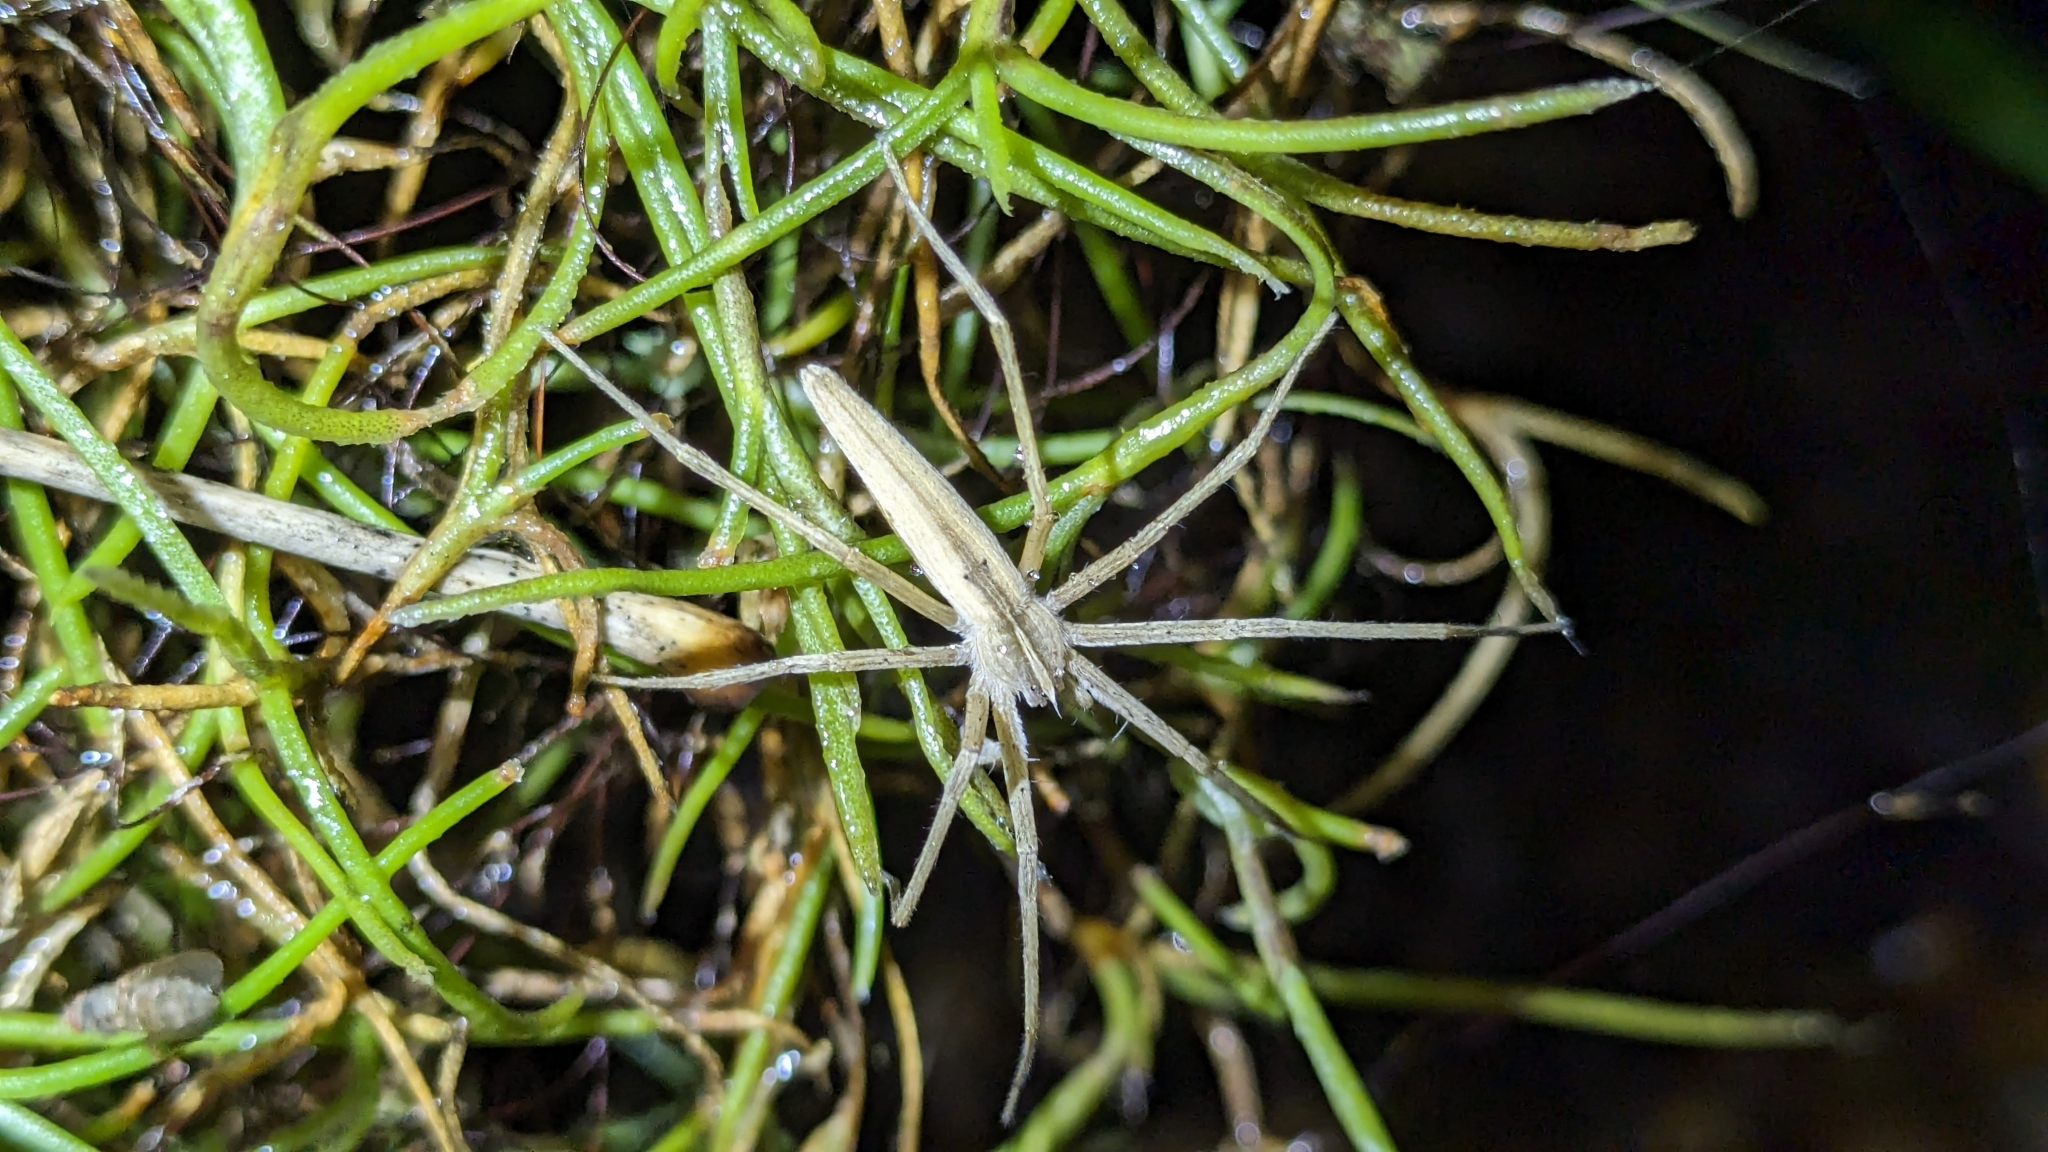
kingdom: Animalia
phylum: Arthropoda
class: Arachnida
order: Araneae
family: Pisauridae
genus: Pisaurina
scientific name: Pisaurina dubia
